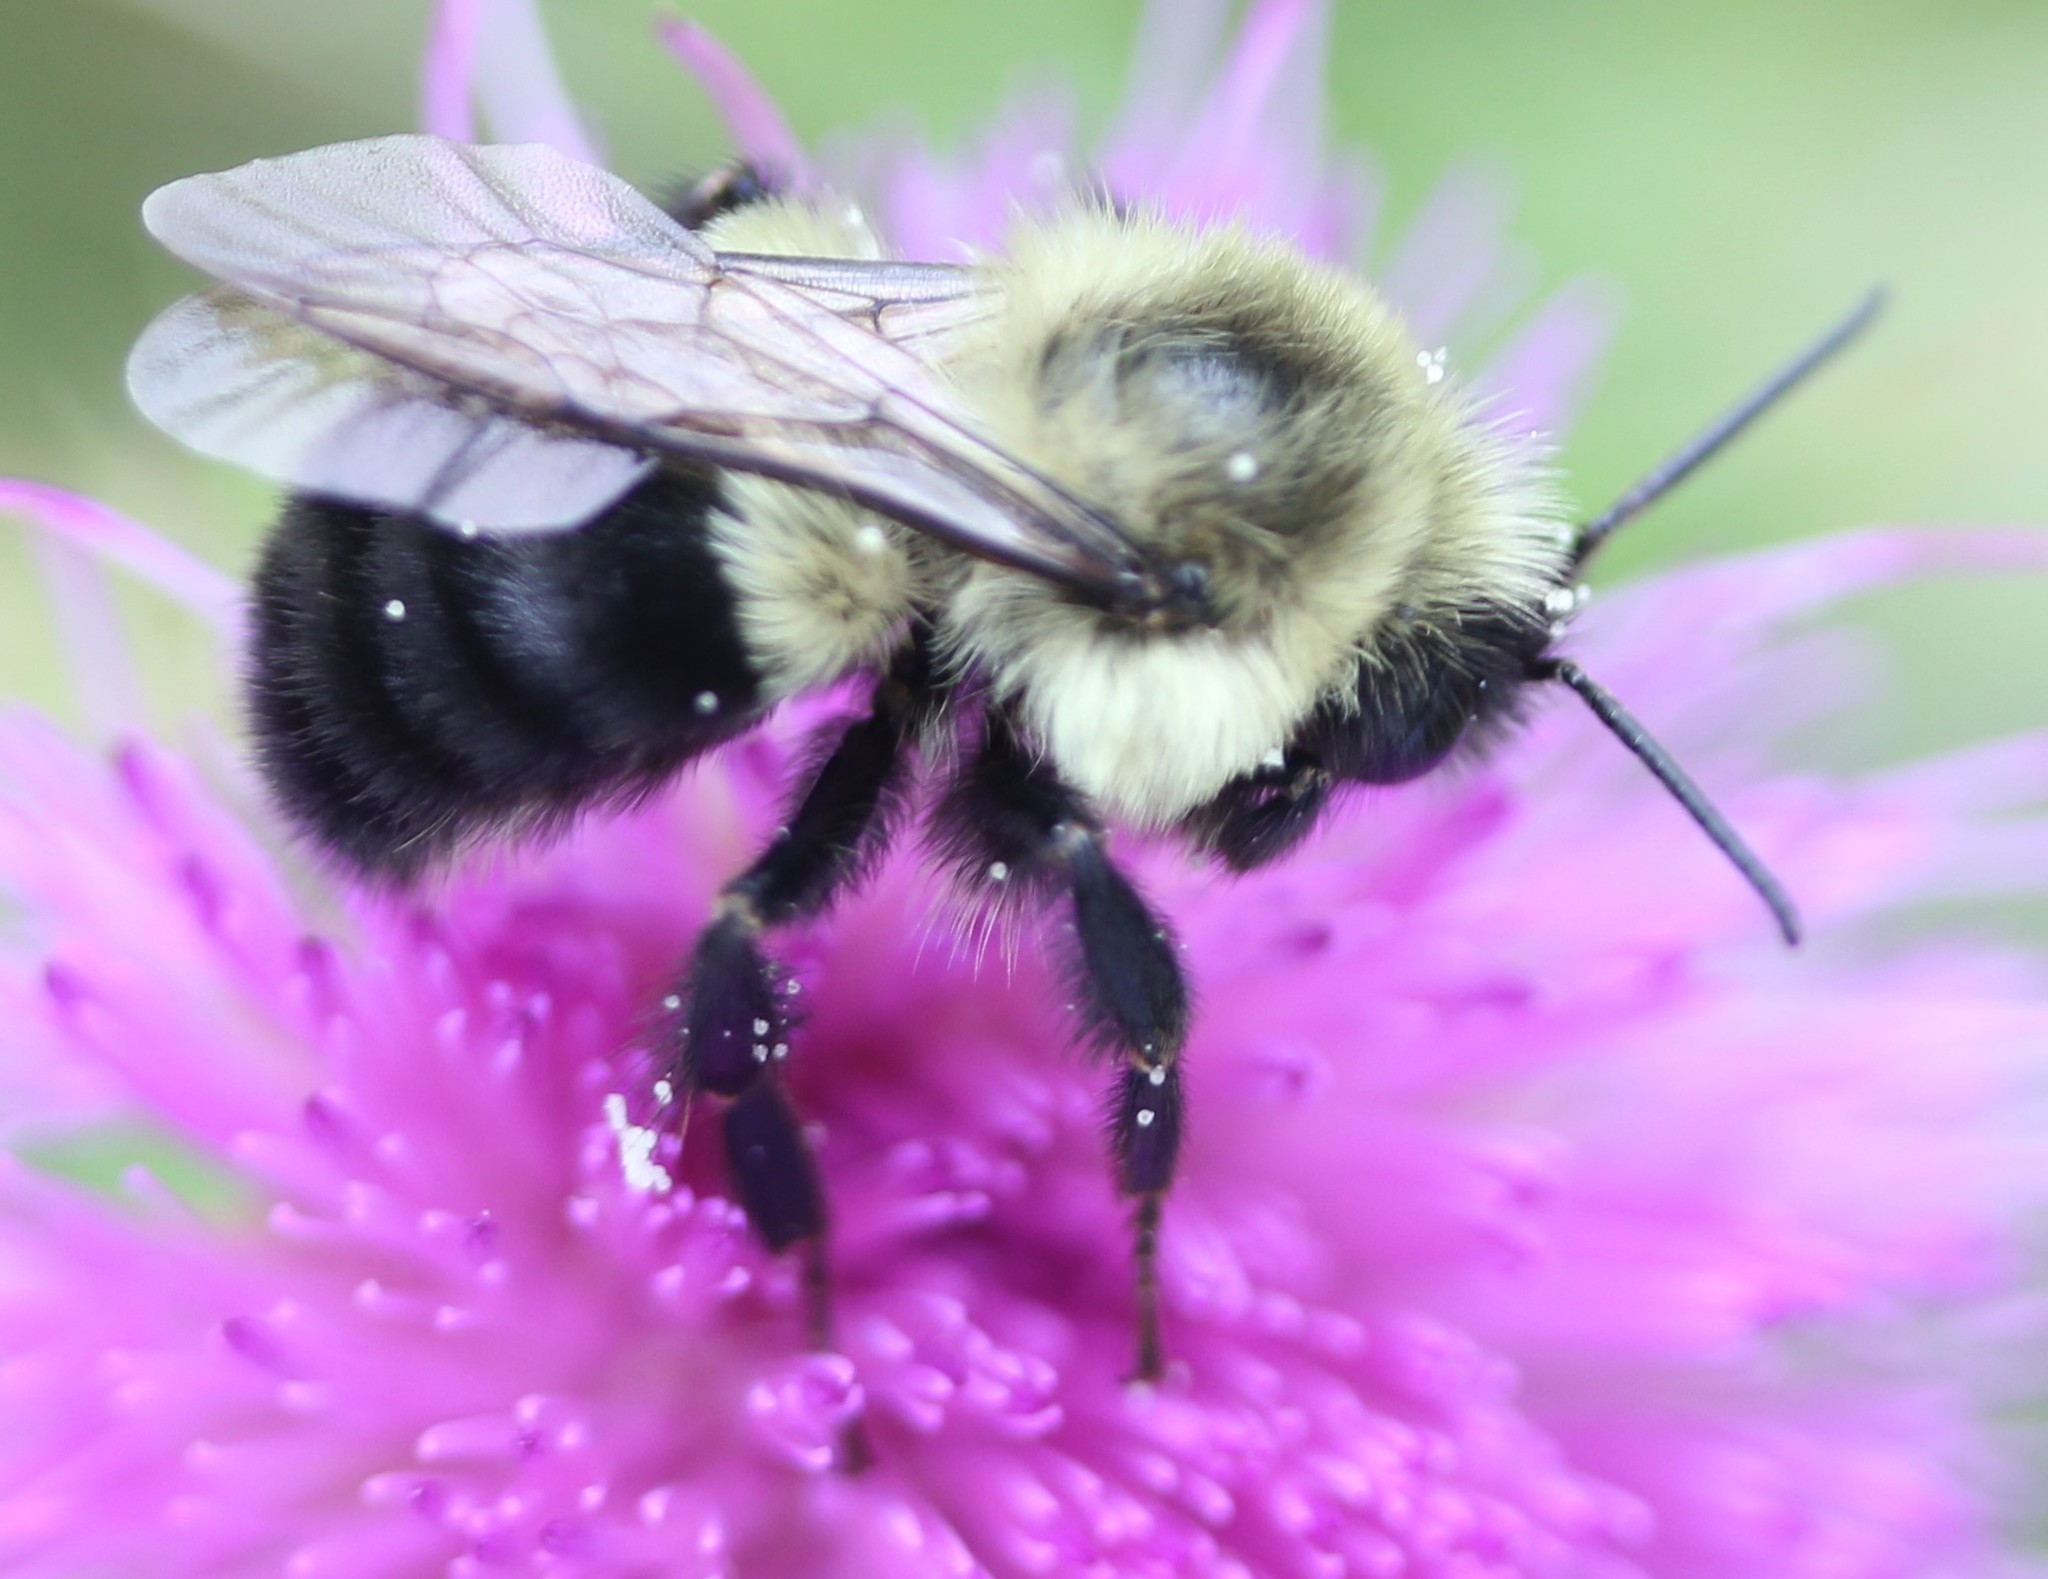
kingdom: Animalia
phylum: Arthropoda
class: Insecta
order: Hymenoptera
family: Apidae
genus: Bombus
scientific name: Bombus impatiens
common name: Common eastern bumble bee
